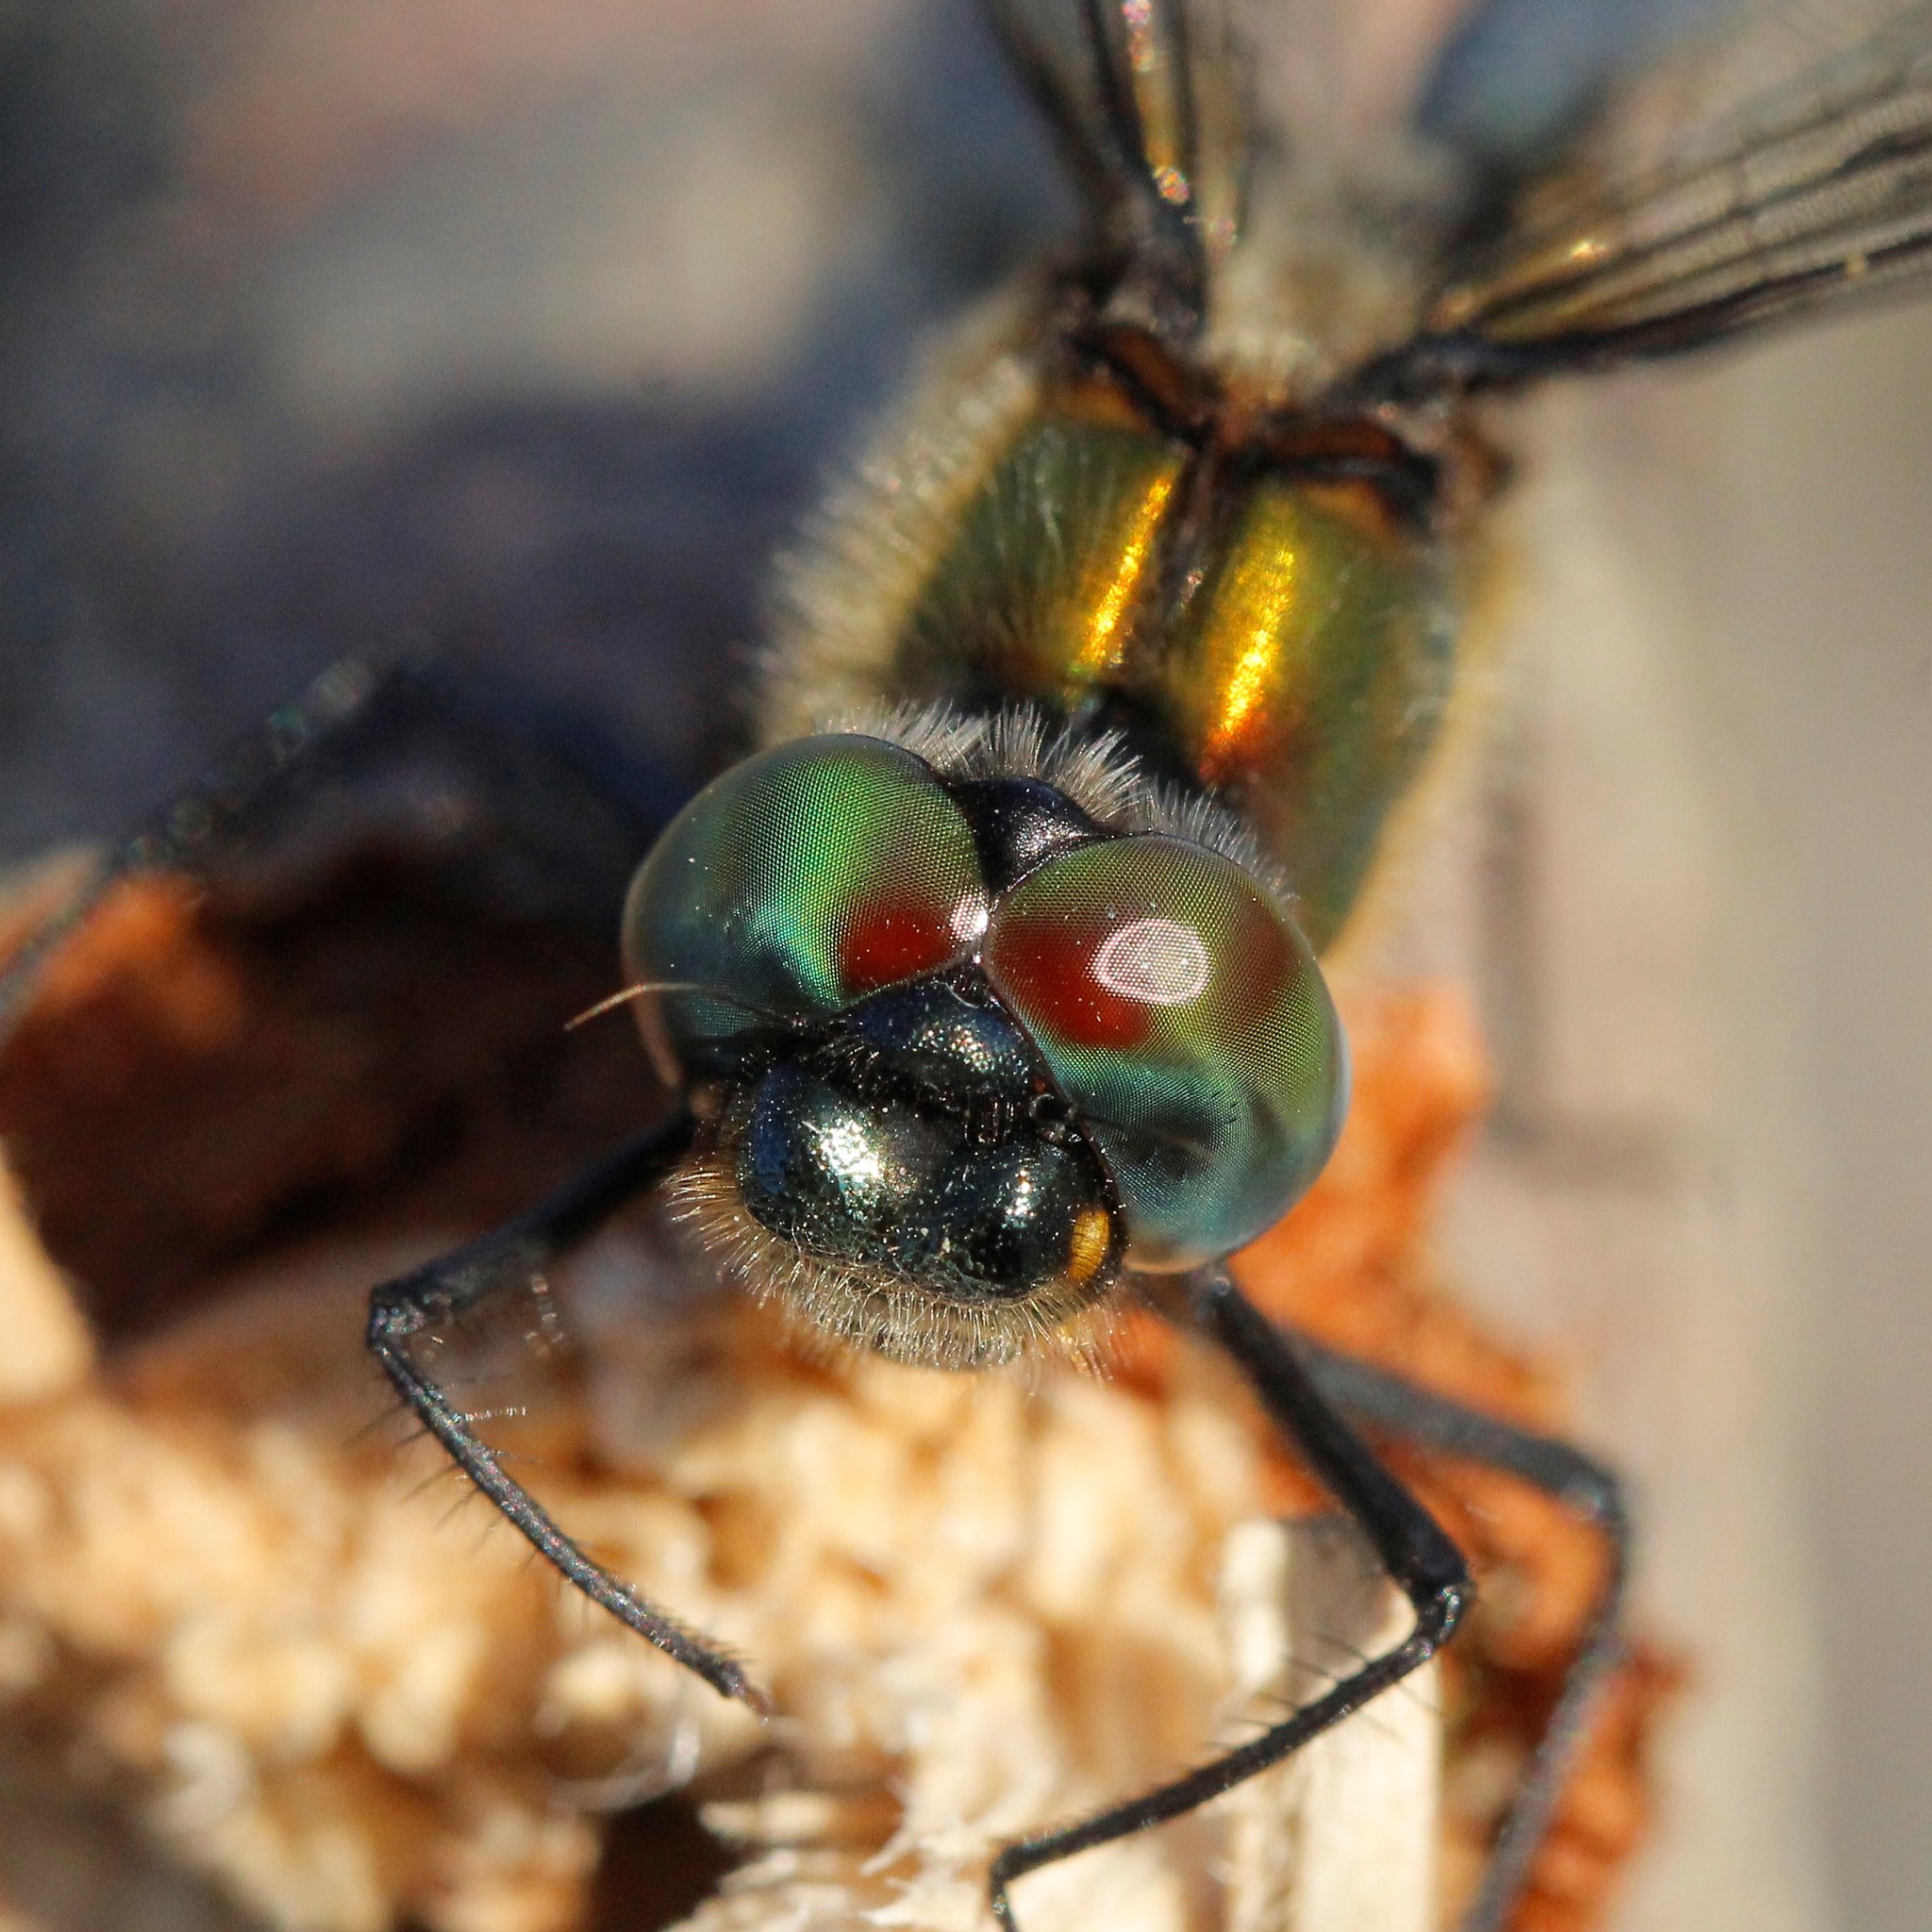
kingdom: Animalia
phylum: Arthropoda
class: Insecta
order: Odonata
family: Corduliidae
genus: Somatochlora
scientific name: Somatochlora sahlbergi
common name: Treeline emerald
